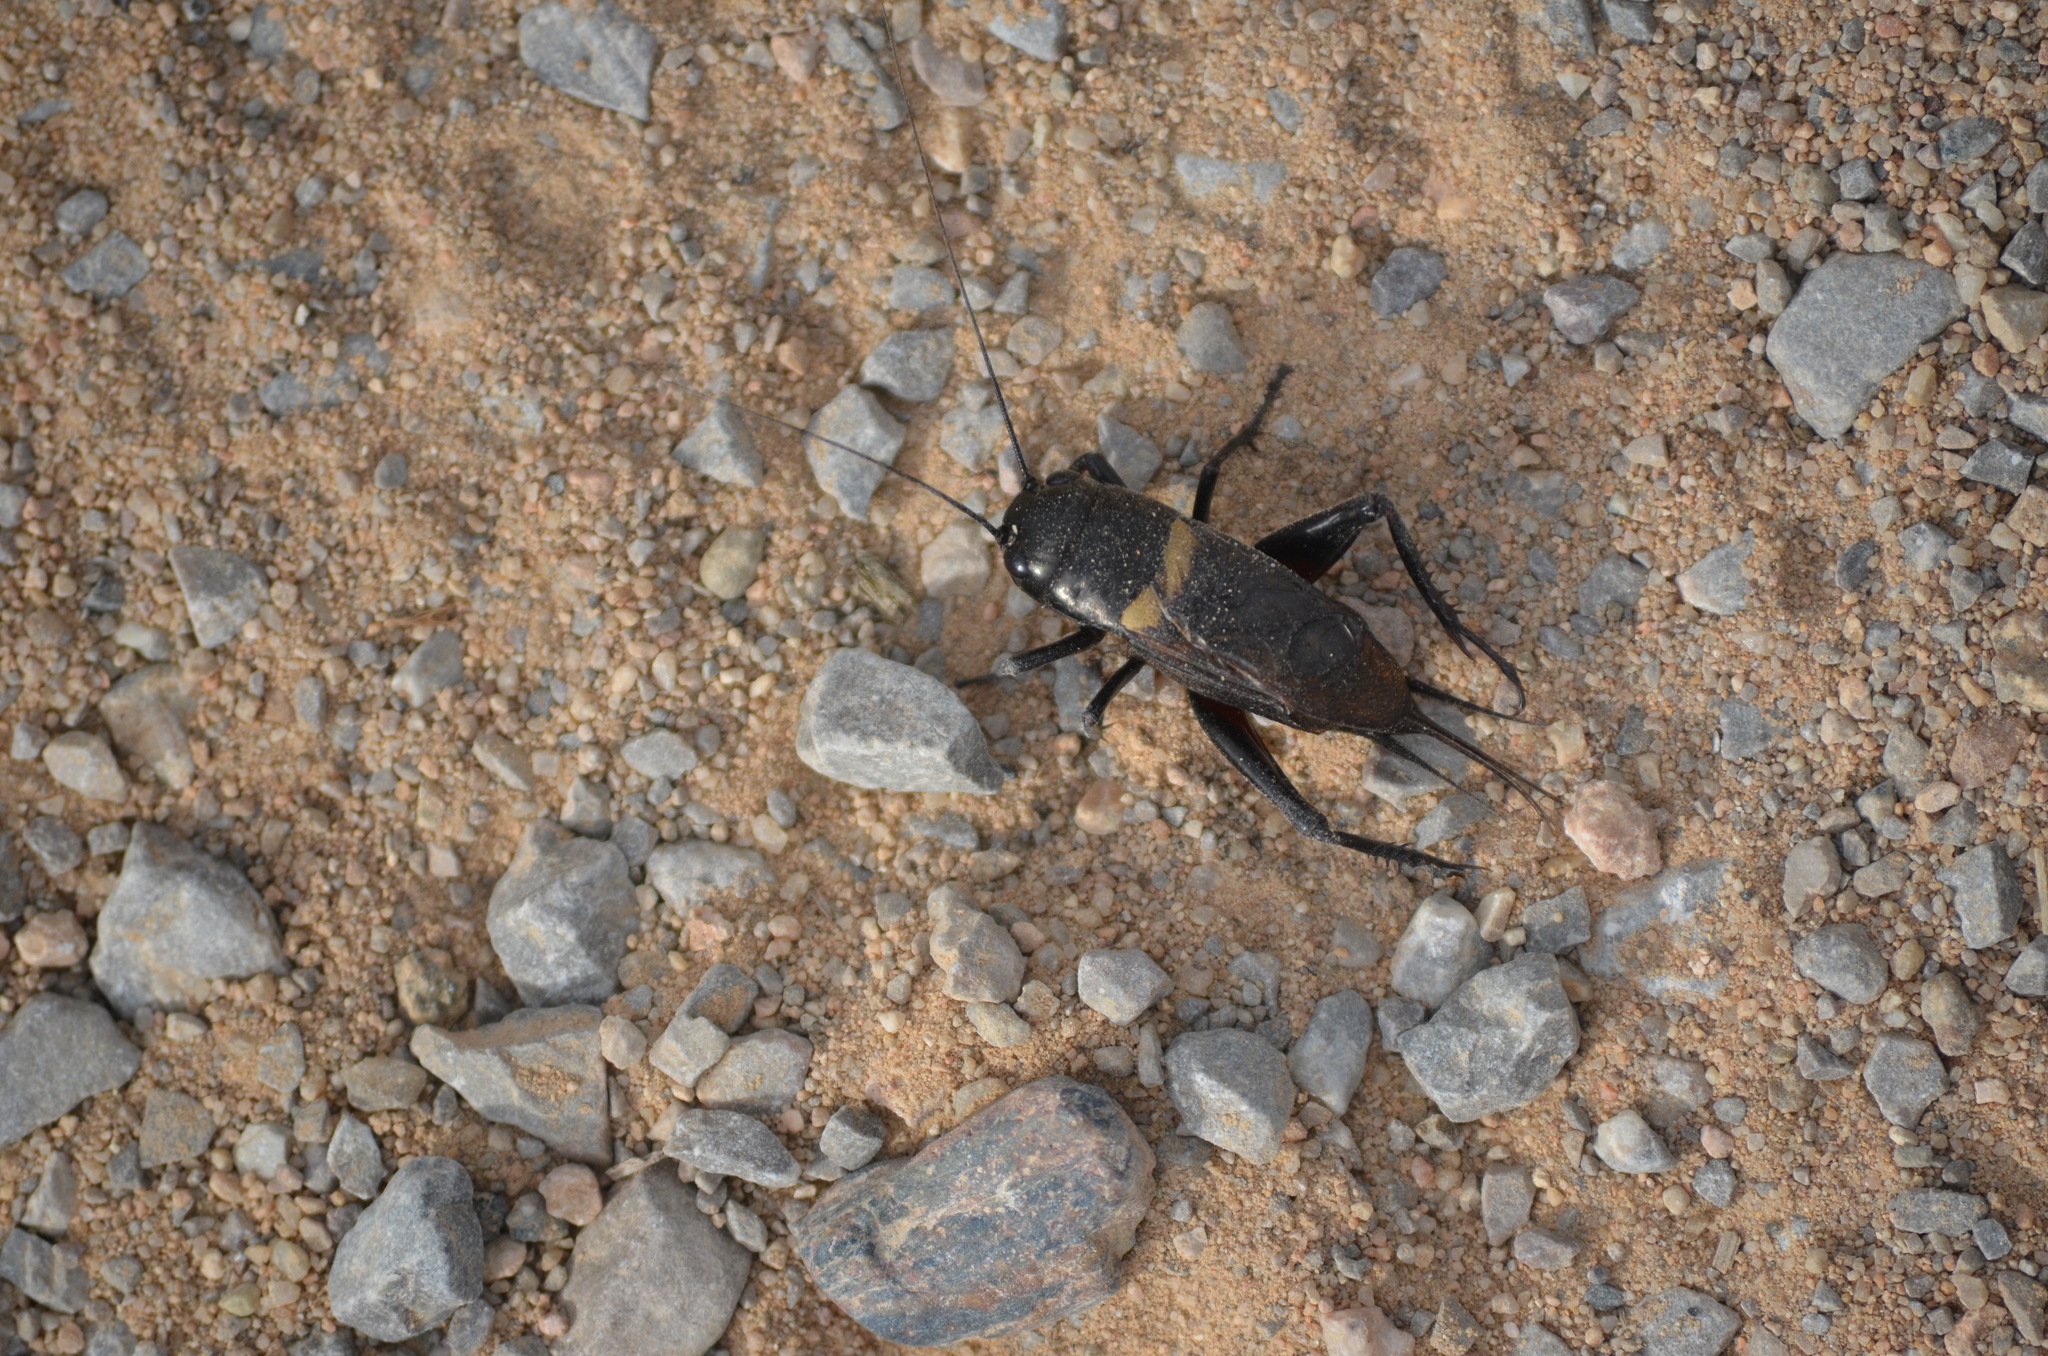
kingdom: Animalia
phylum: Arthropoda
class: Insecta
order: Orthoptera
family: Gryllidae
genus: Gryllus
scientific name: Gryllus bimaculatus
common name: Two-spotted cricket
